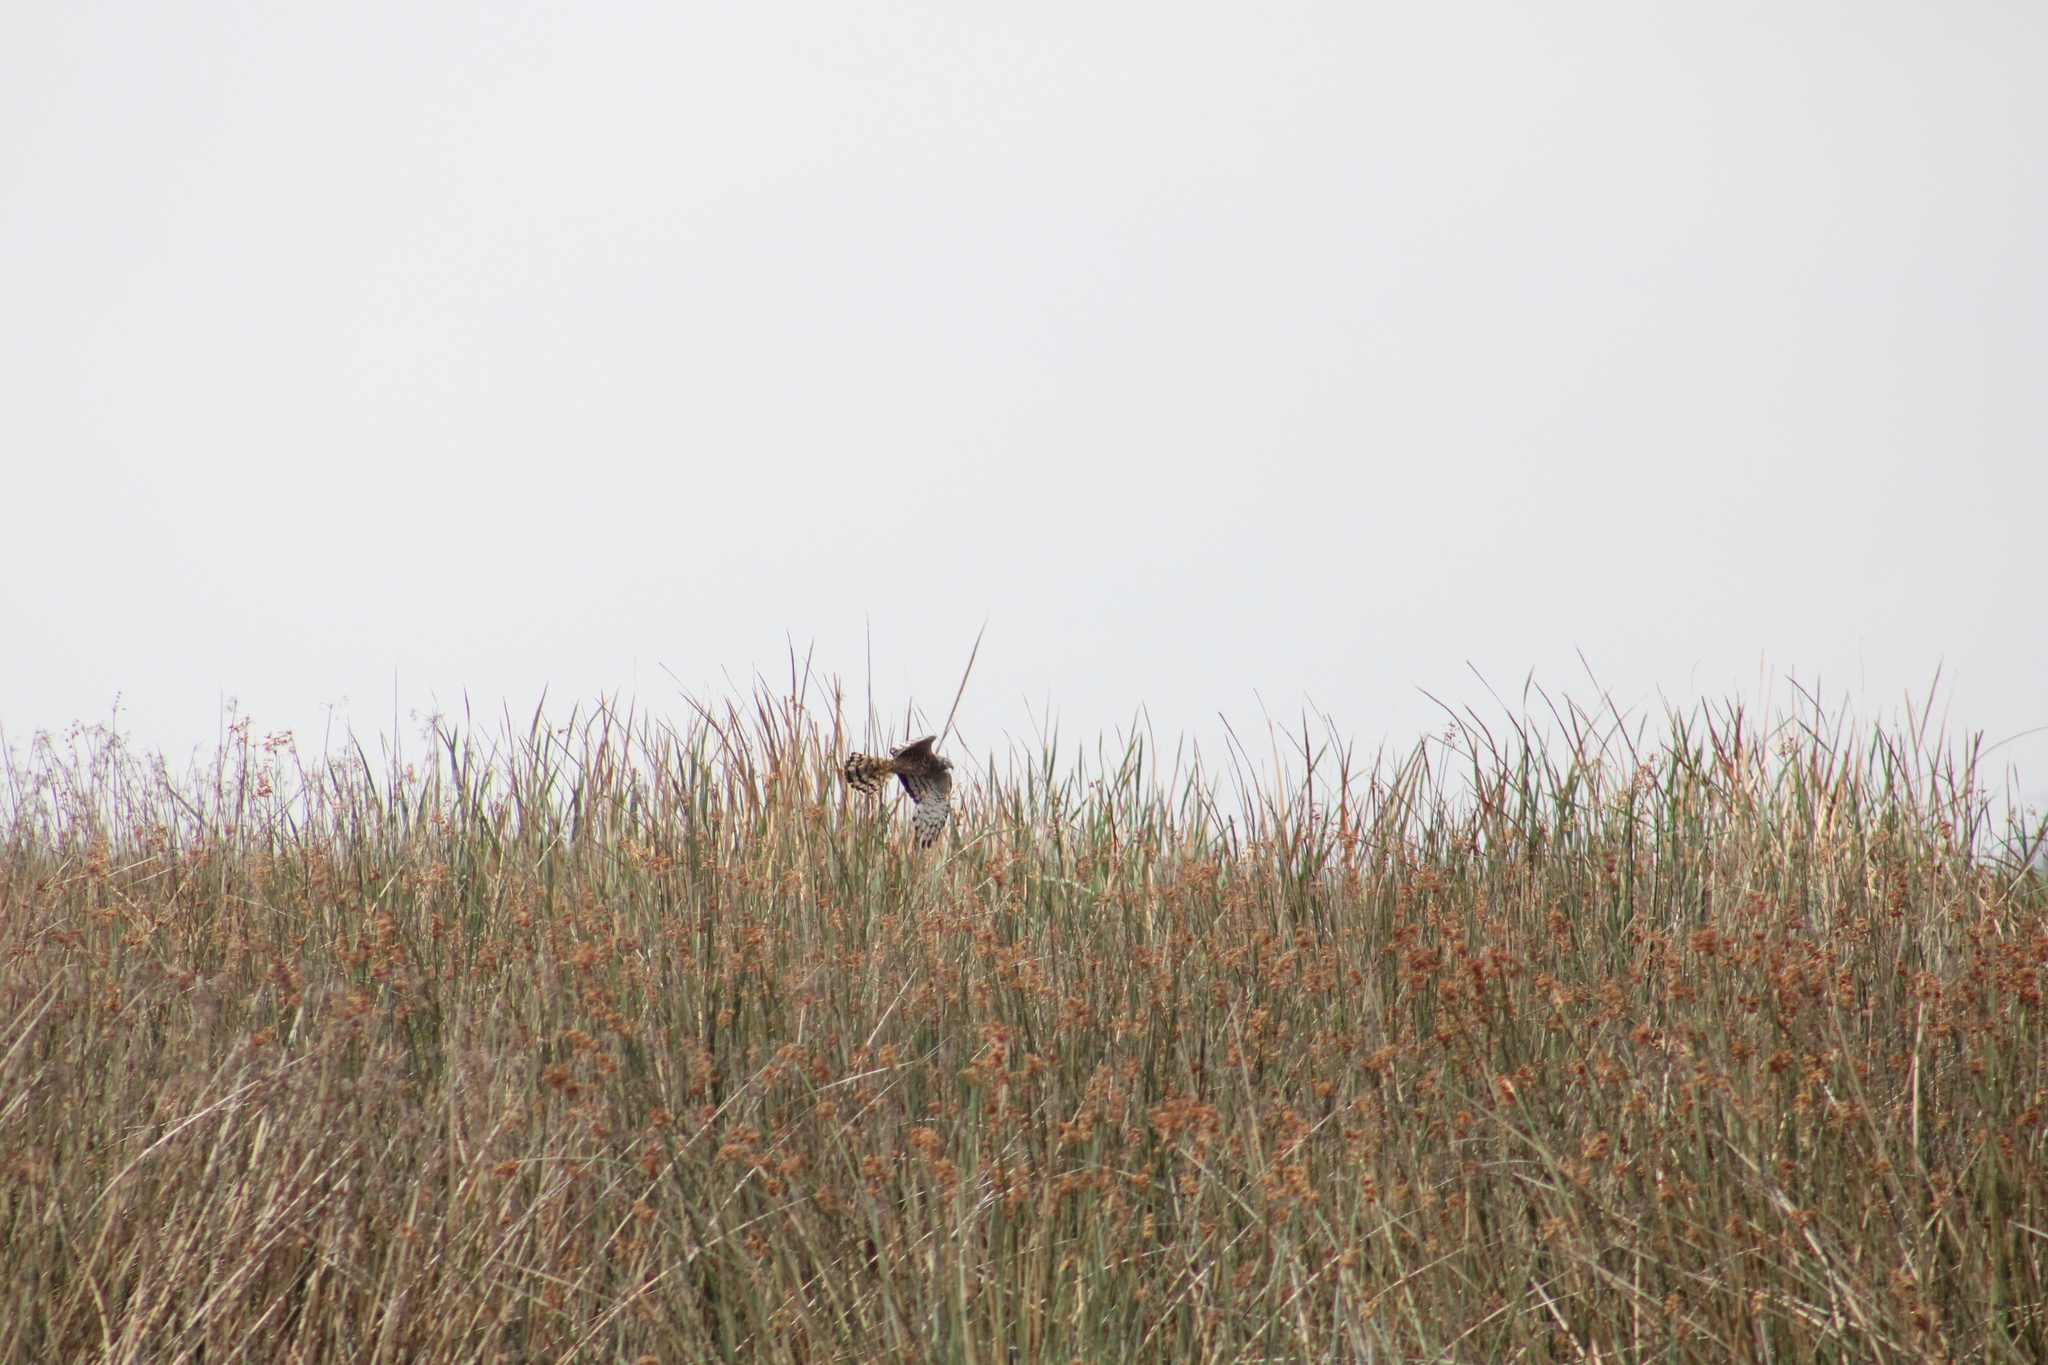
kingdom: Animalia
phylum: Chordata
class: Aves
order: Accipitriformes
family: Accipitridae
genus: Circus
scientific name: Circus cinereus
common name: Cinereous harrier
